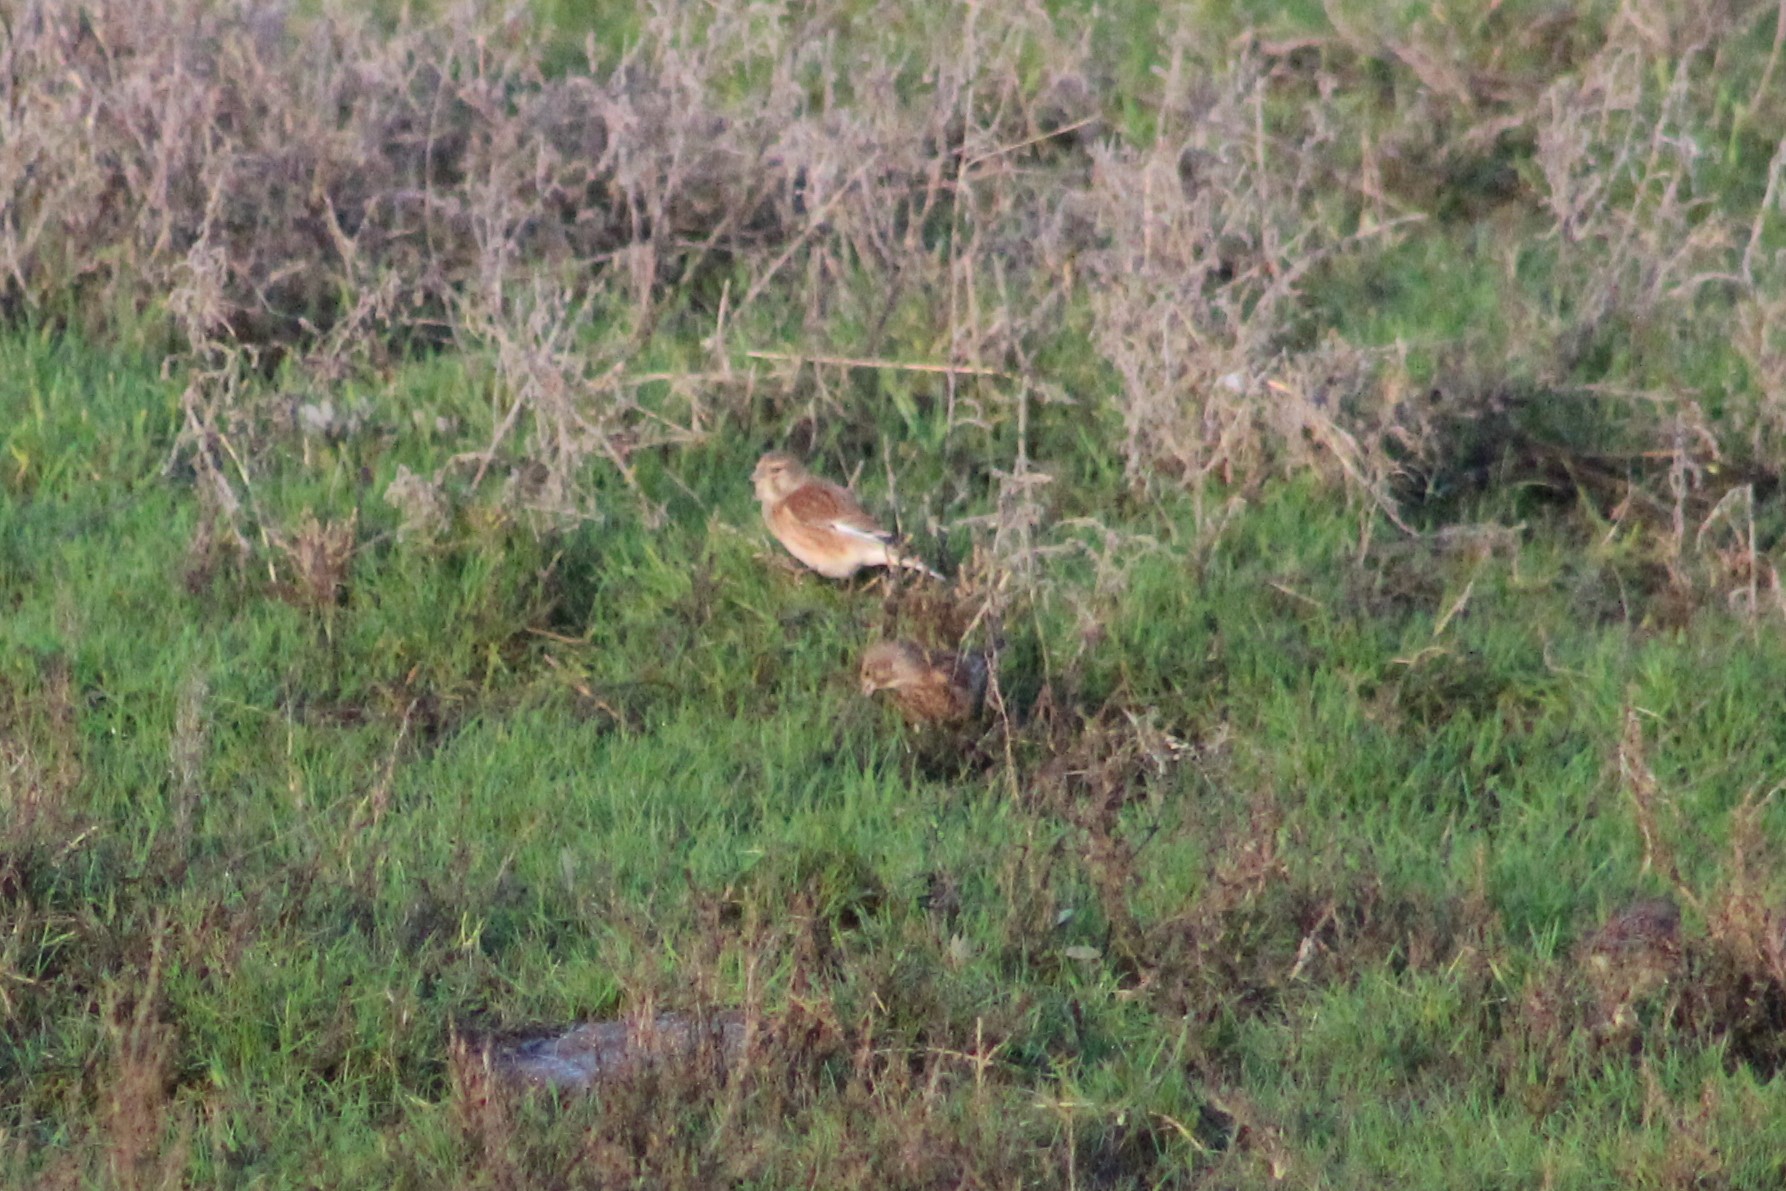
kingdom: Animalia
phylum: Chordata
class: Aves
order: Passeriformes
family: Fringillidae
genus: Linaria
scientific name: Linaria cannabina
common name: Common linnet
